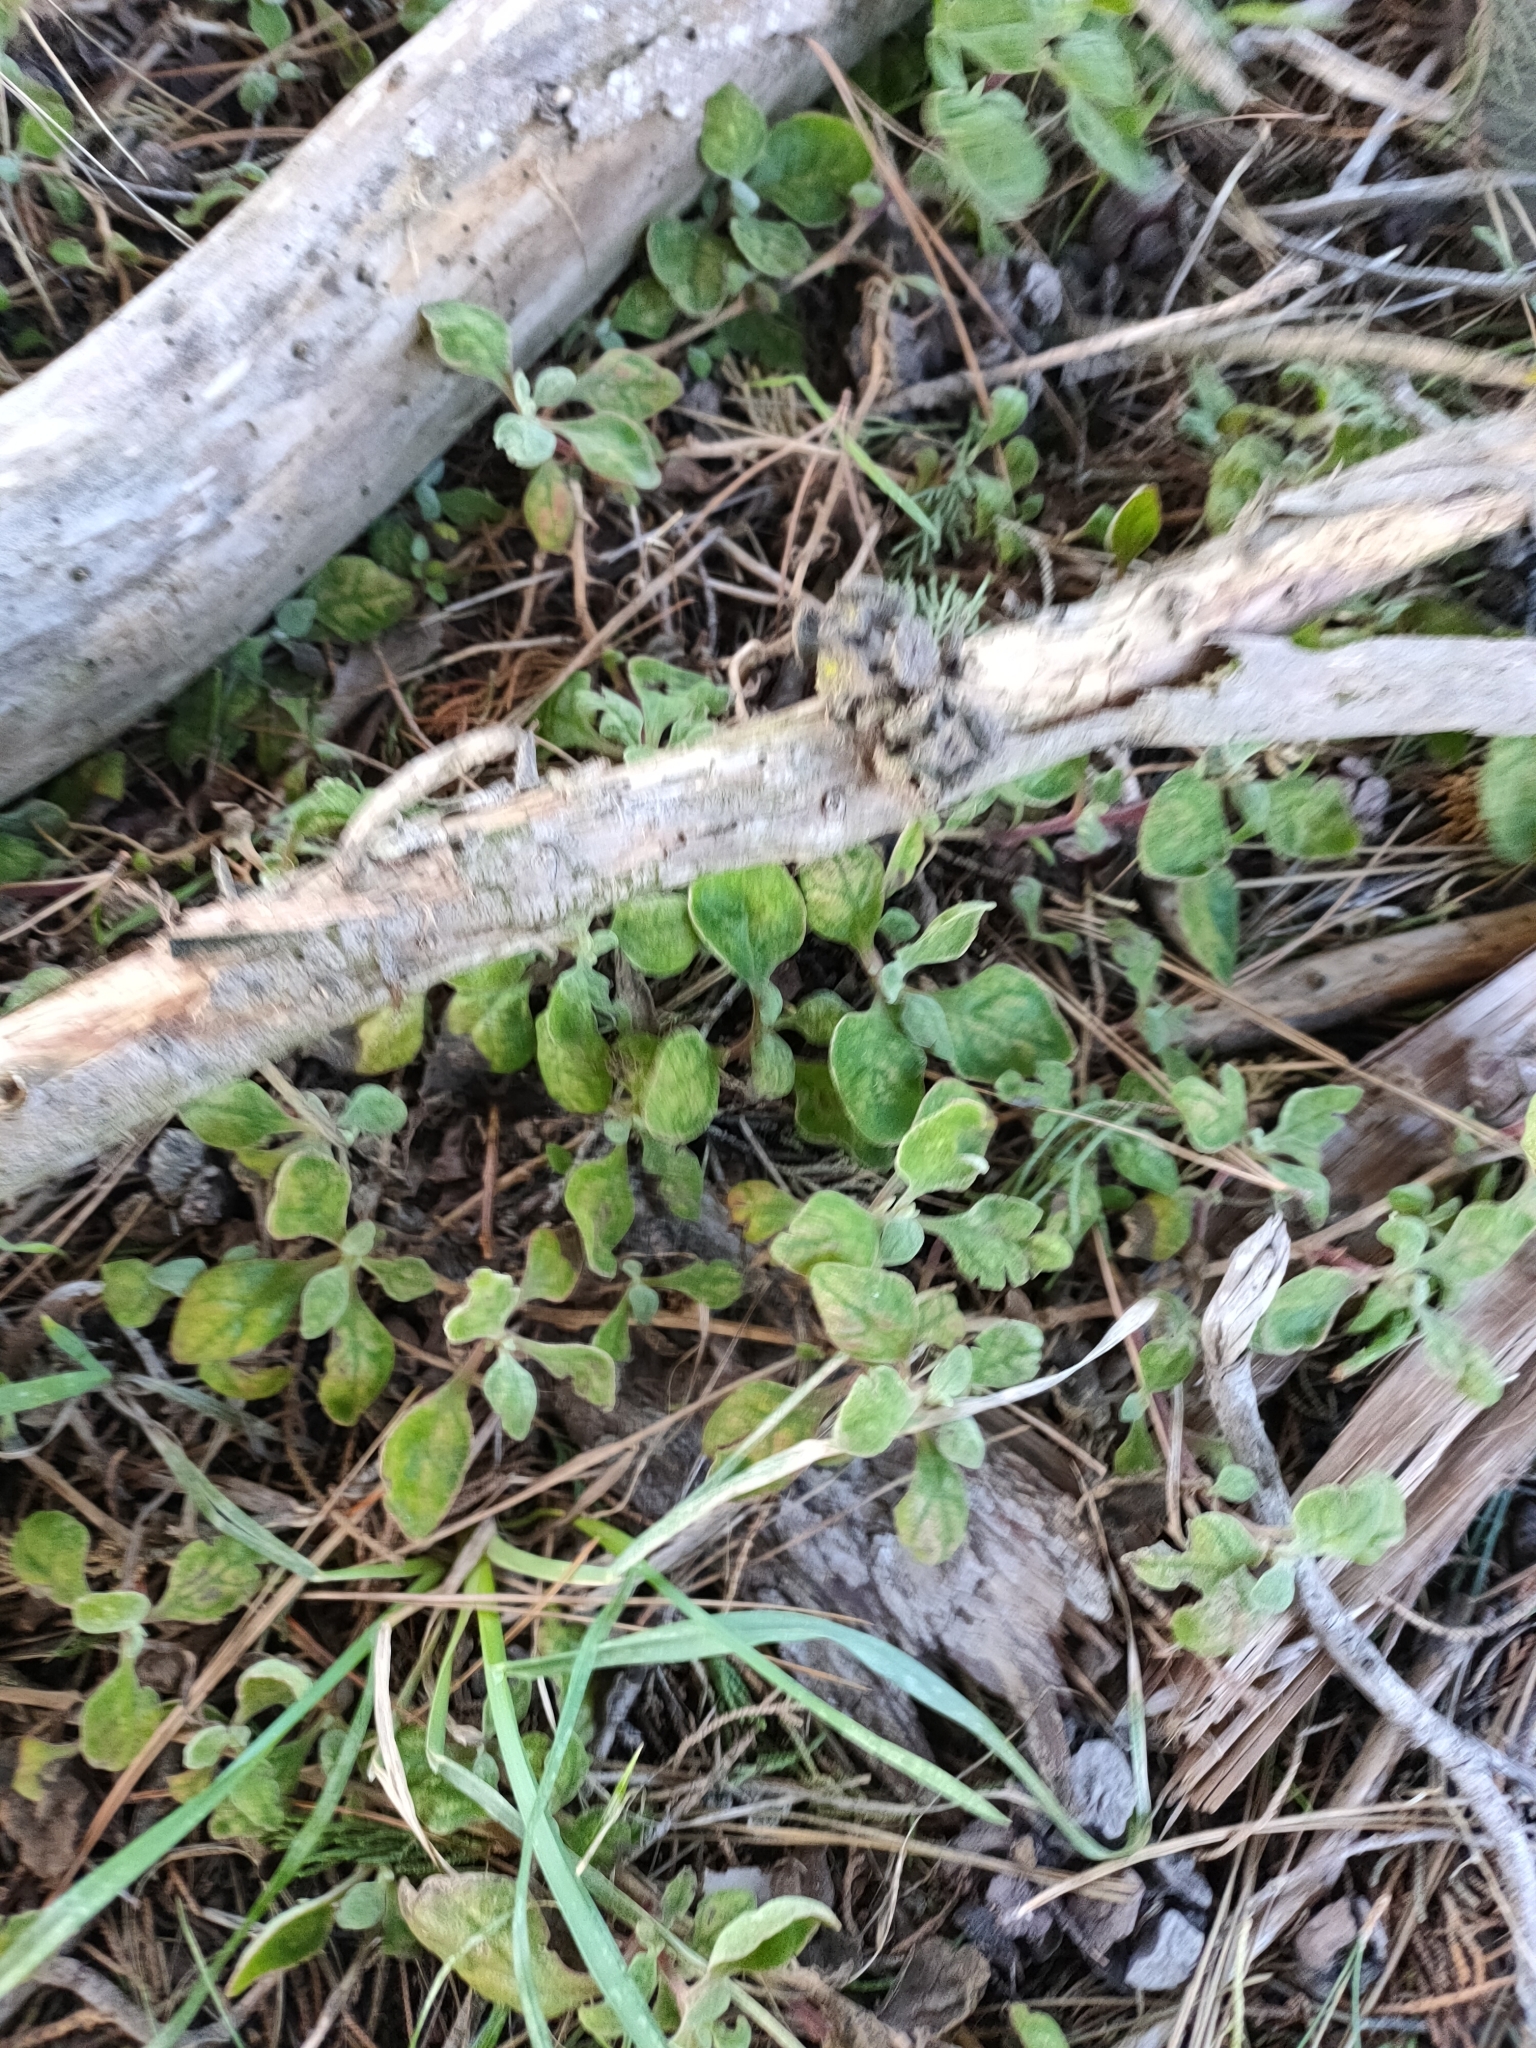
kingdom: Plantae
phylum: Tracheophyta
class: Magnoliopsida
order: Caryophyllales
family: Aizoaceae
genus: Tetragonia
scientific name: Tetragonia implexicoma
